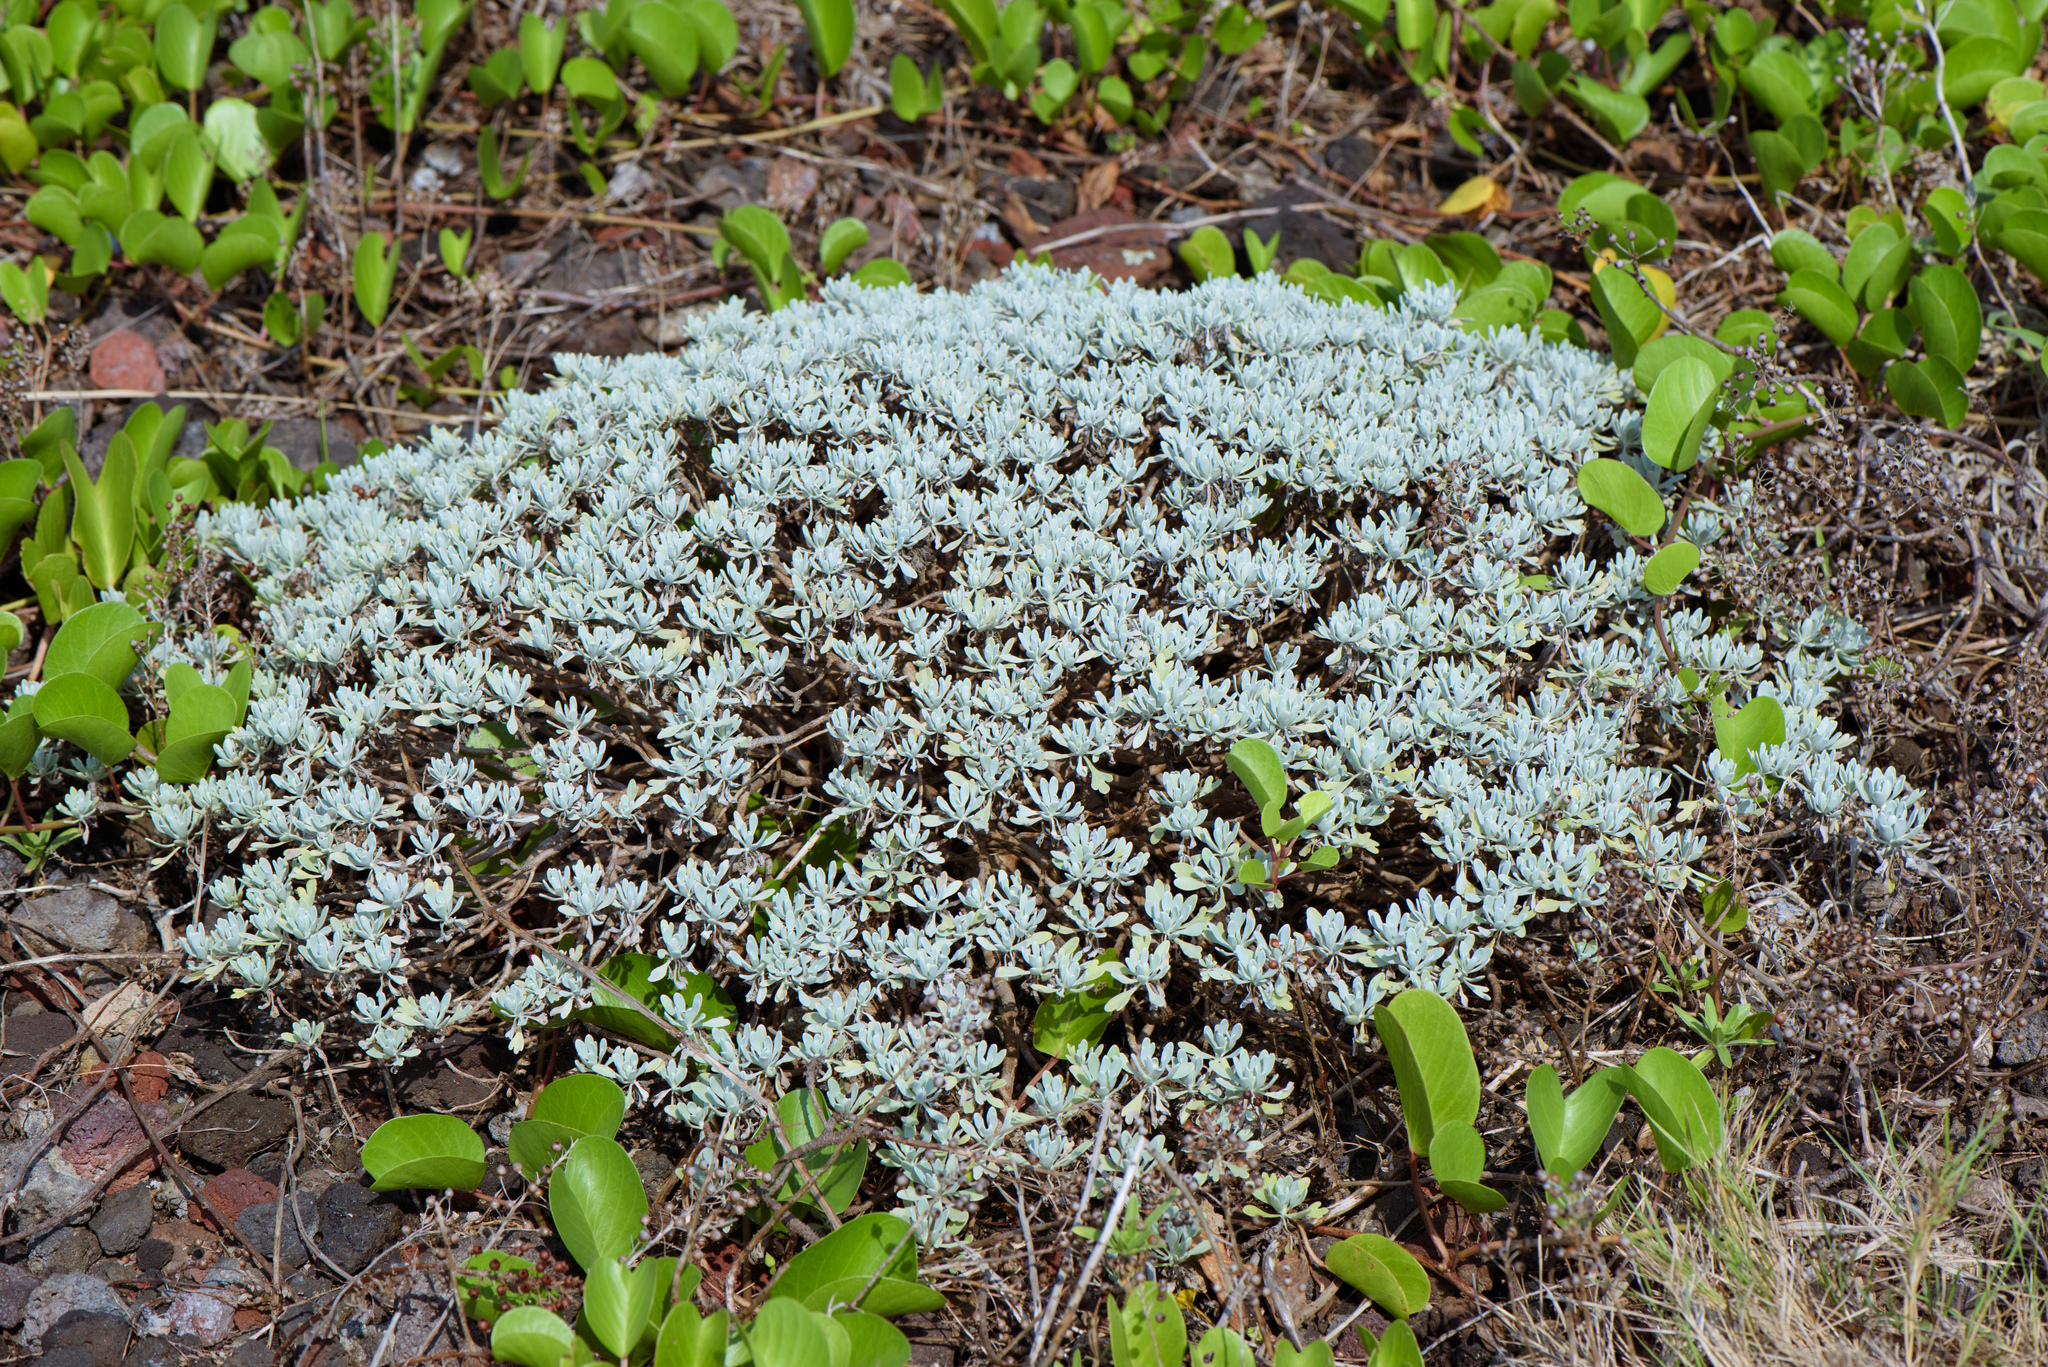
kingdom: Plantae
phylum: Tracheophyta
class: Magnoliopsida
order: Asterales
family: Asteraceae
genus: Crossostephium
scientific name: Crossostephium chinense
